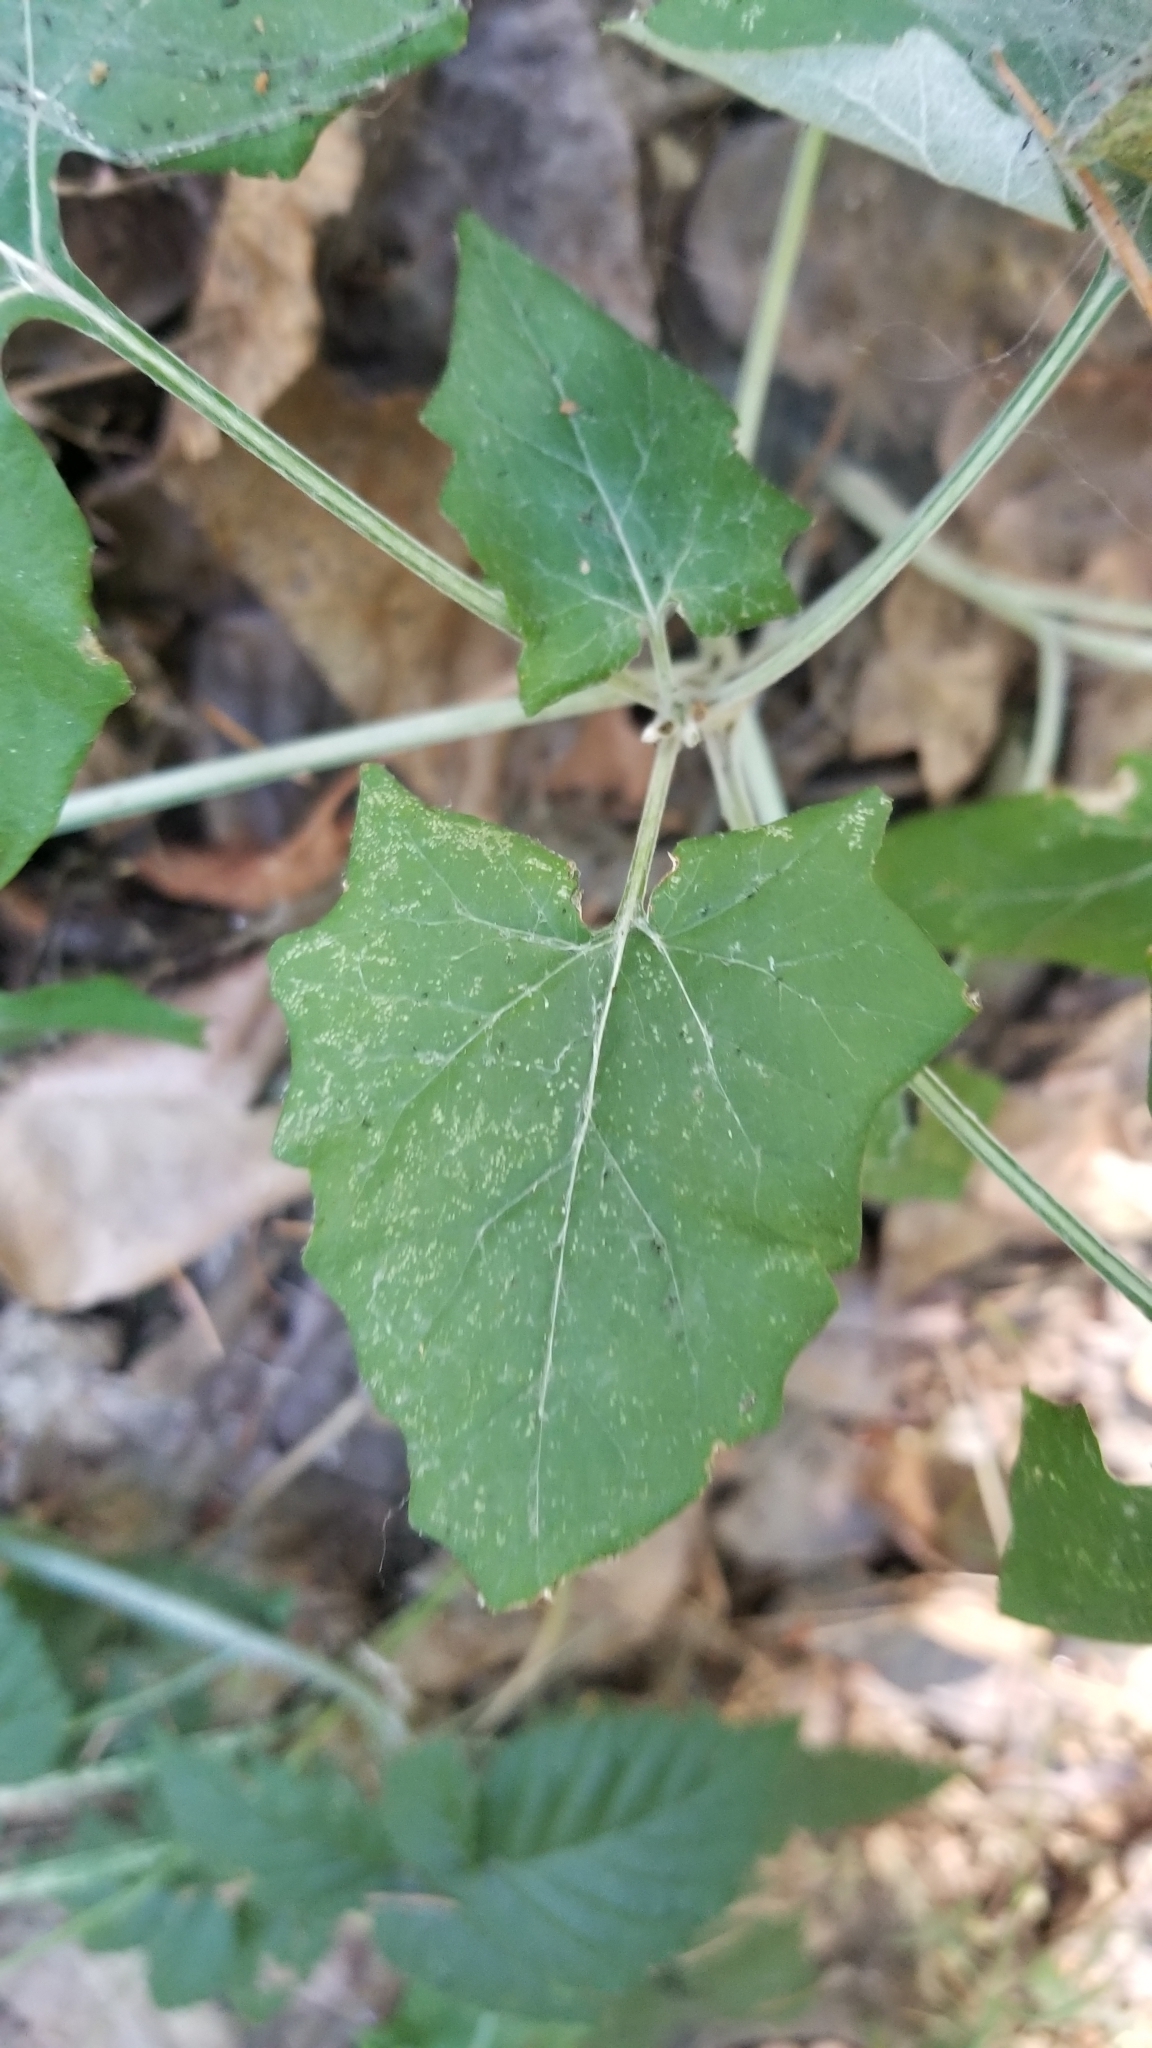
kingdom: Plantae
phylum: Tracheophyta
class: Magnoliopsida
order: Asterales
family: Asteraceae
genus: Adenocaulon
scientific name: Adenocaulon bicolor
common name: Trailplant
